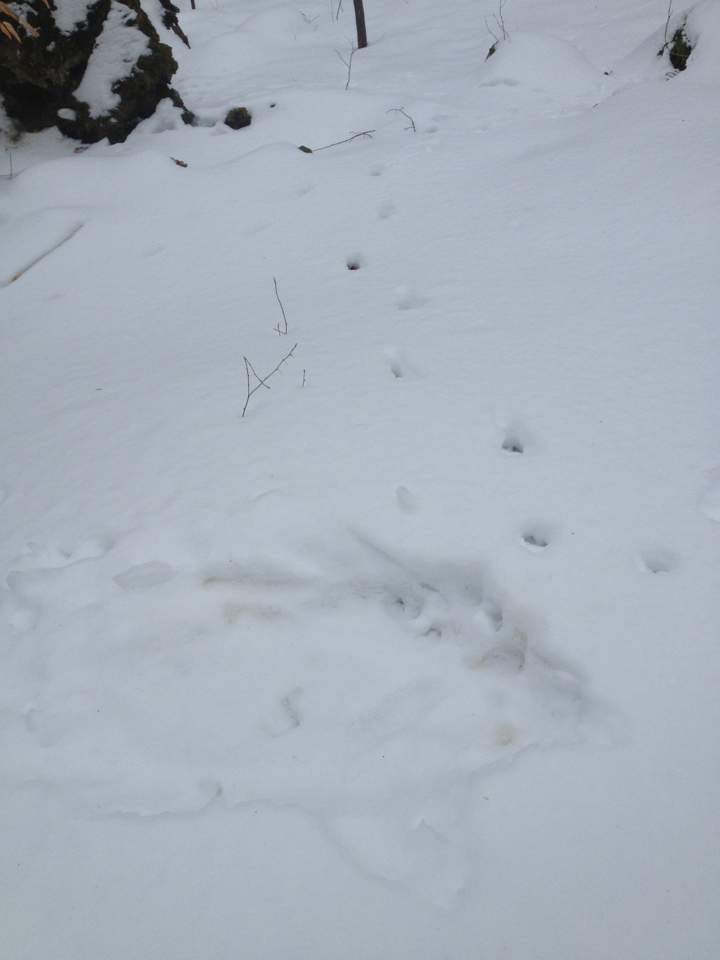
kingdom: Animalia
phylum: Chordata
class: Mammalia
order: Artiodactyla
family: Cervidae
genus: Odocoileus
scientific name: Odocoileus virginianus
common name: White-tailed deer
